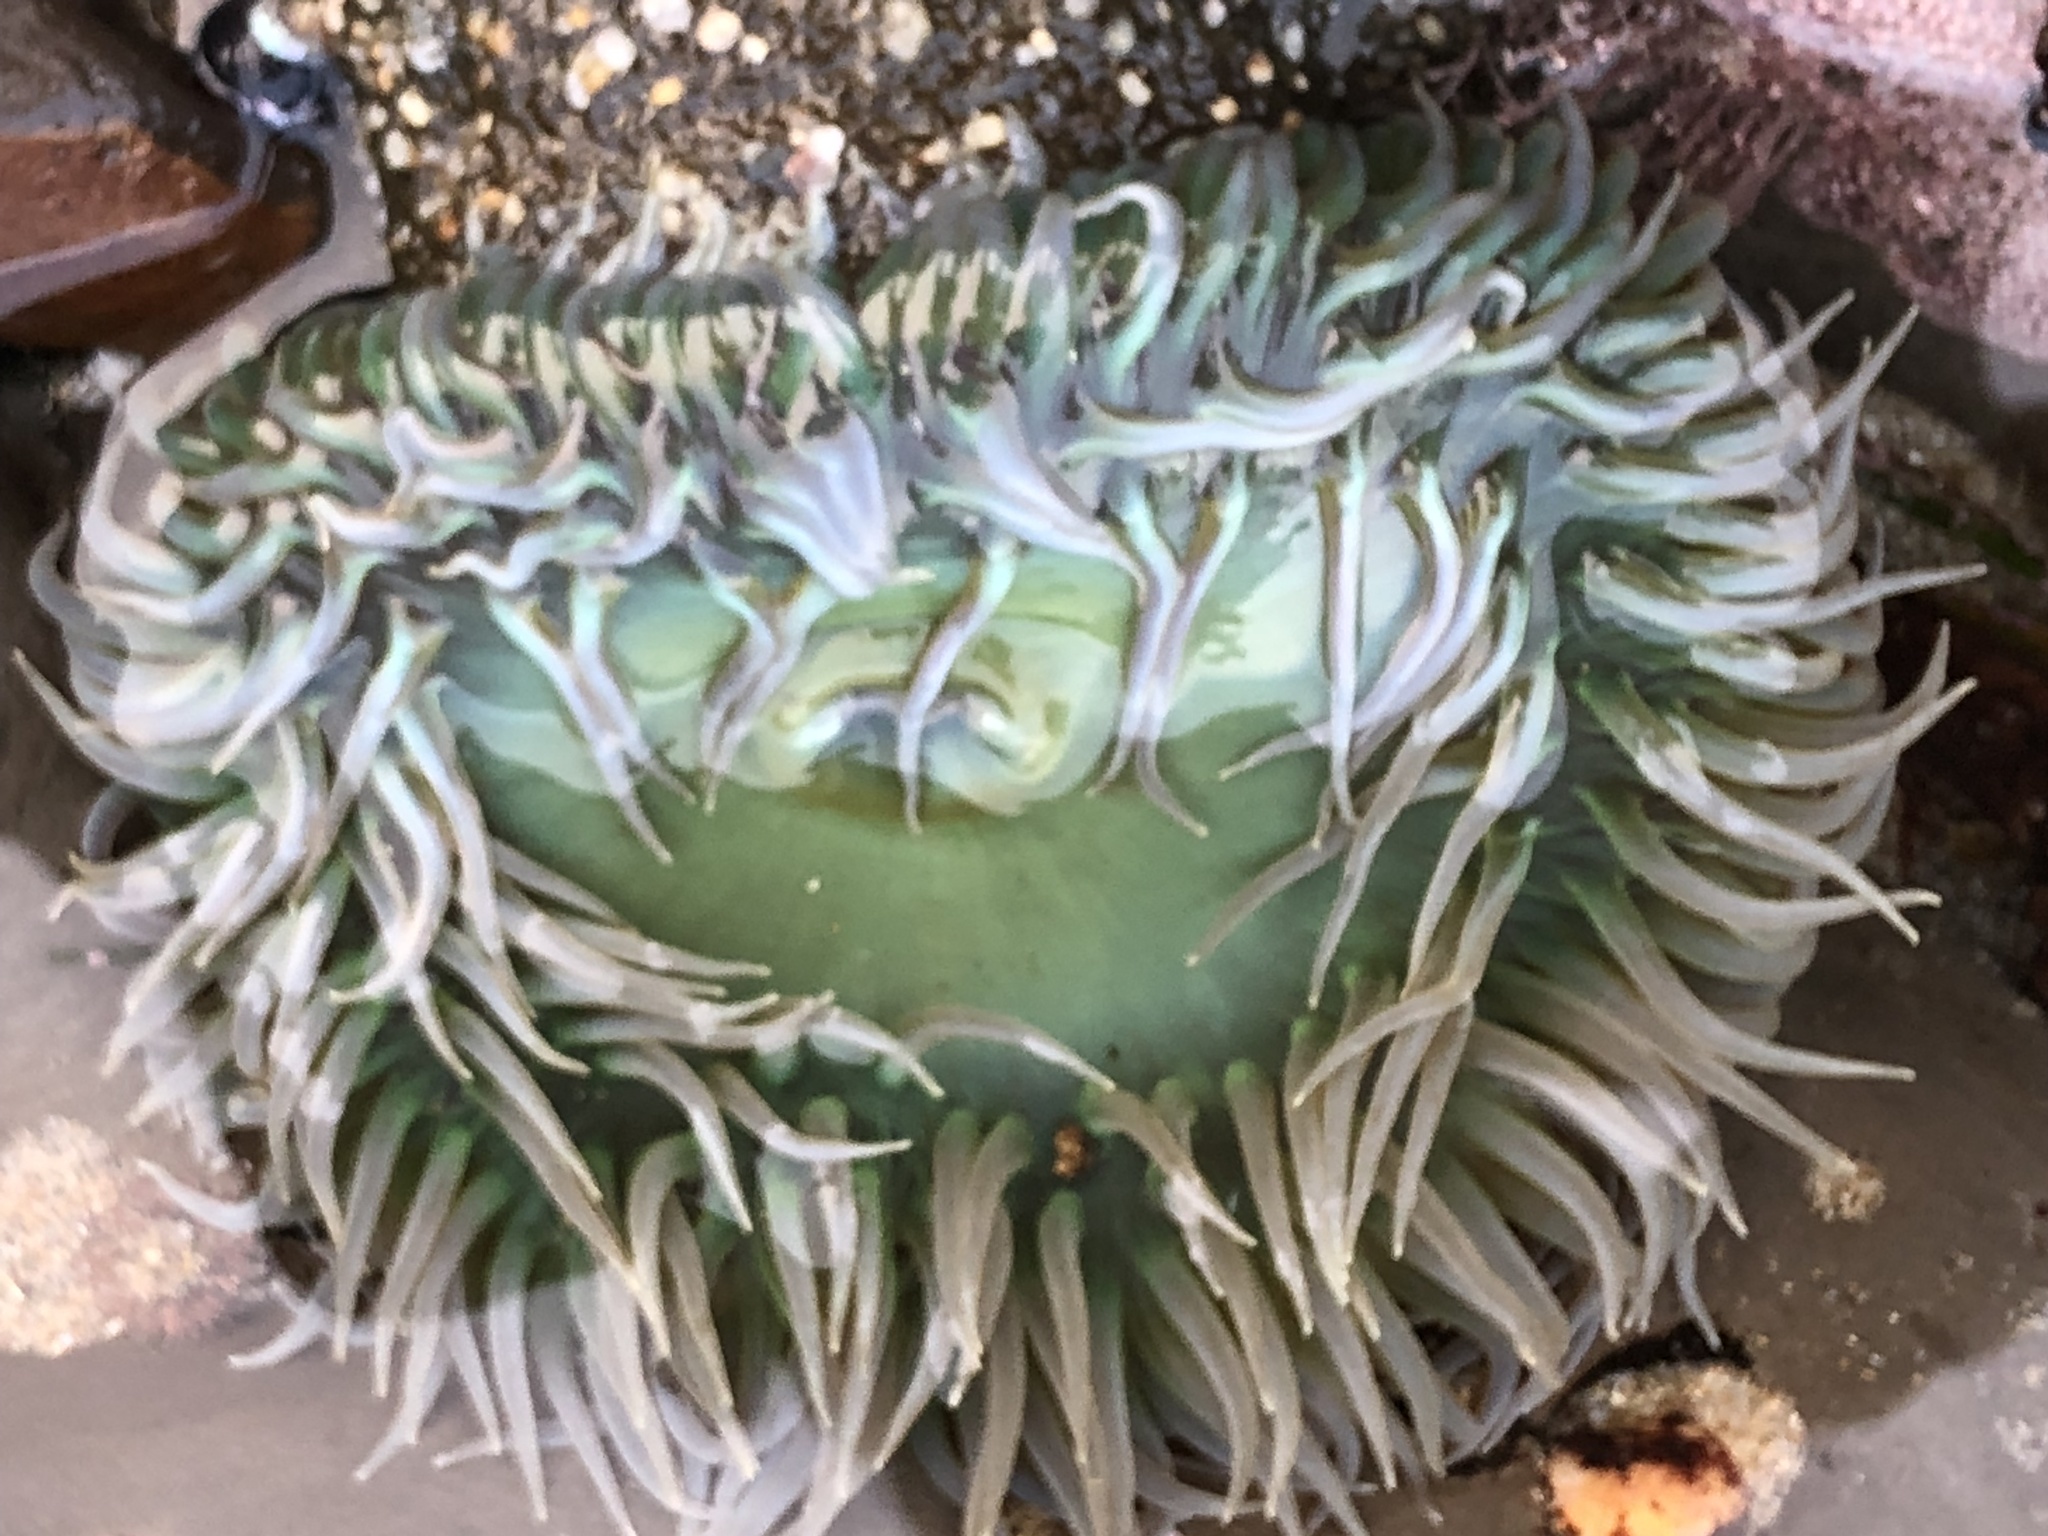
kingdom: Animalia
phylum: Cnidaria
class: Anthozoa
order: Actiniaria
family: Actiniidae
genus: Anthopleura
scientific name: Anthopleura xanthogrammica
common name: Giant green anemone
